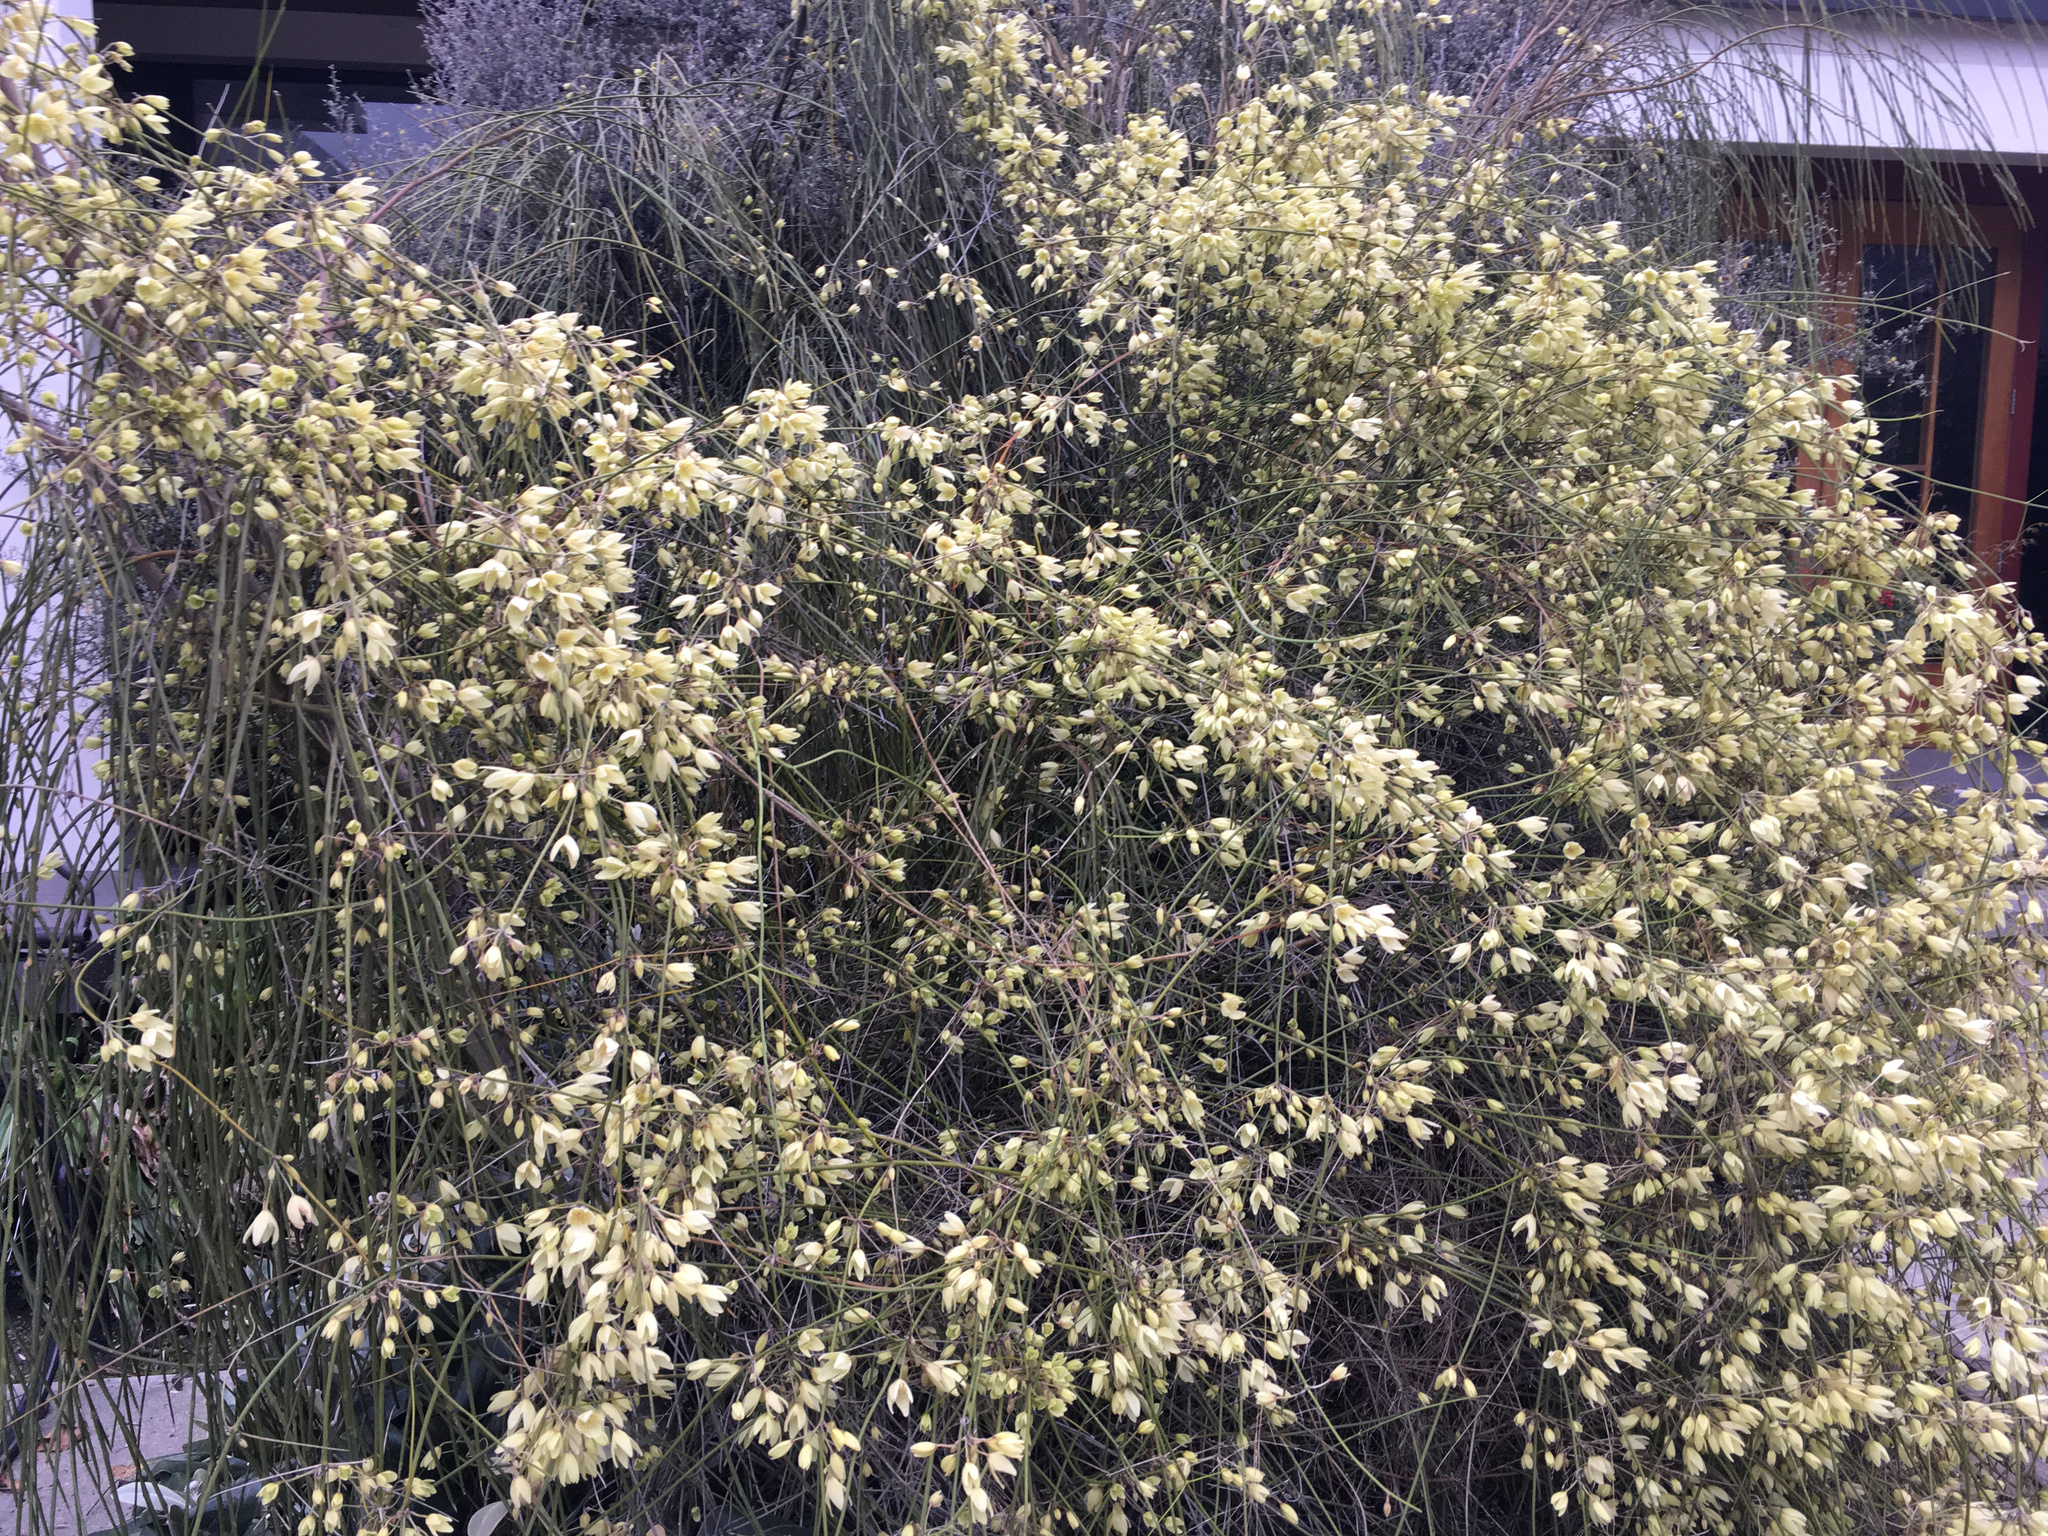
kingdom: Plantae
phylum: Tracheophyta
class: Magnoliopsida
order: Ranunculales
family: Ranunculaceae
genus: Clematis
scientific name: Clematis afoliata
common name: Rush-stem clematis
